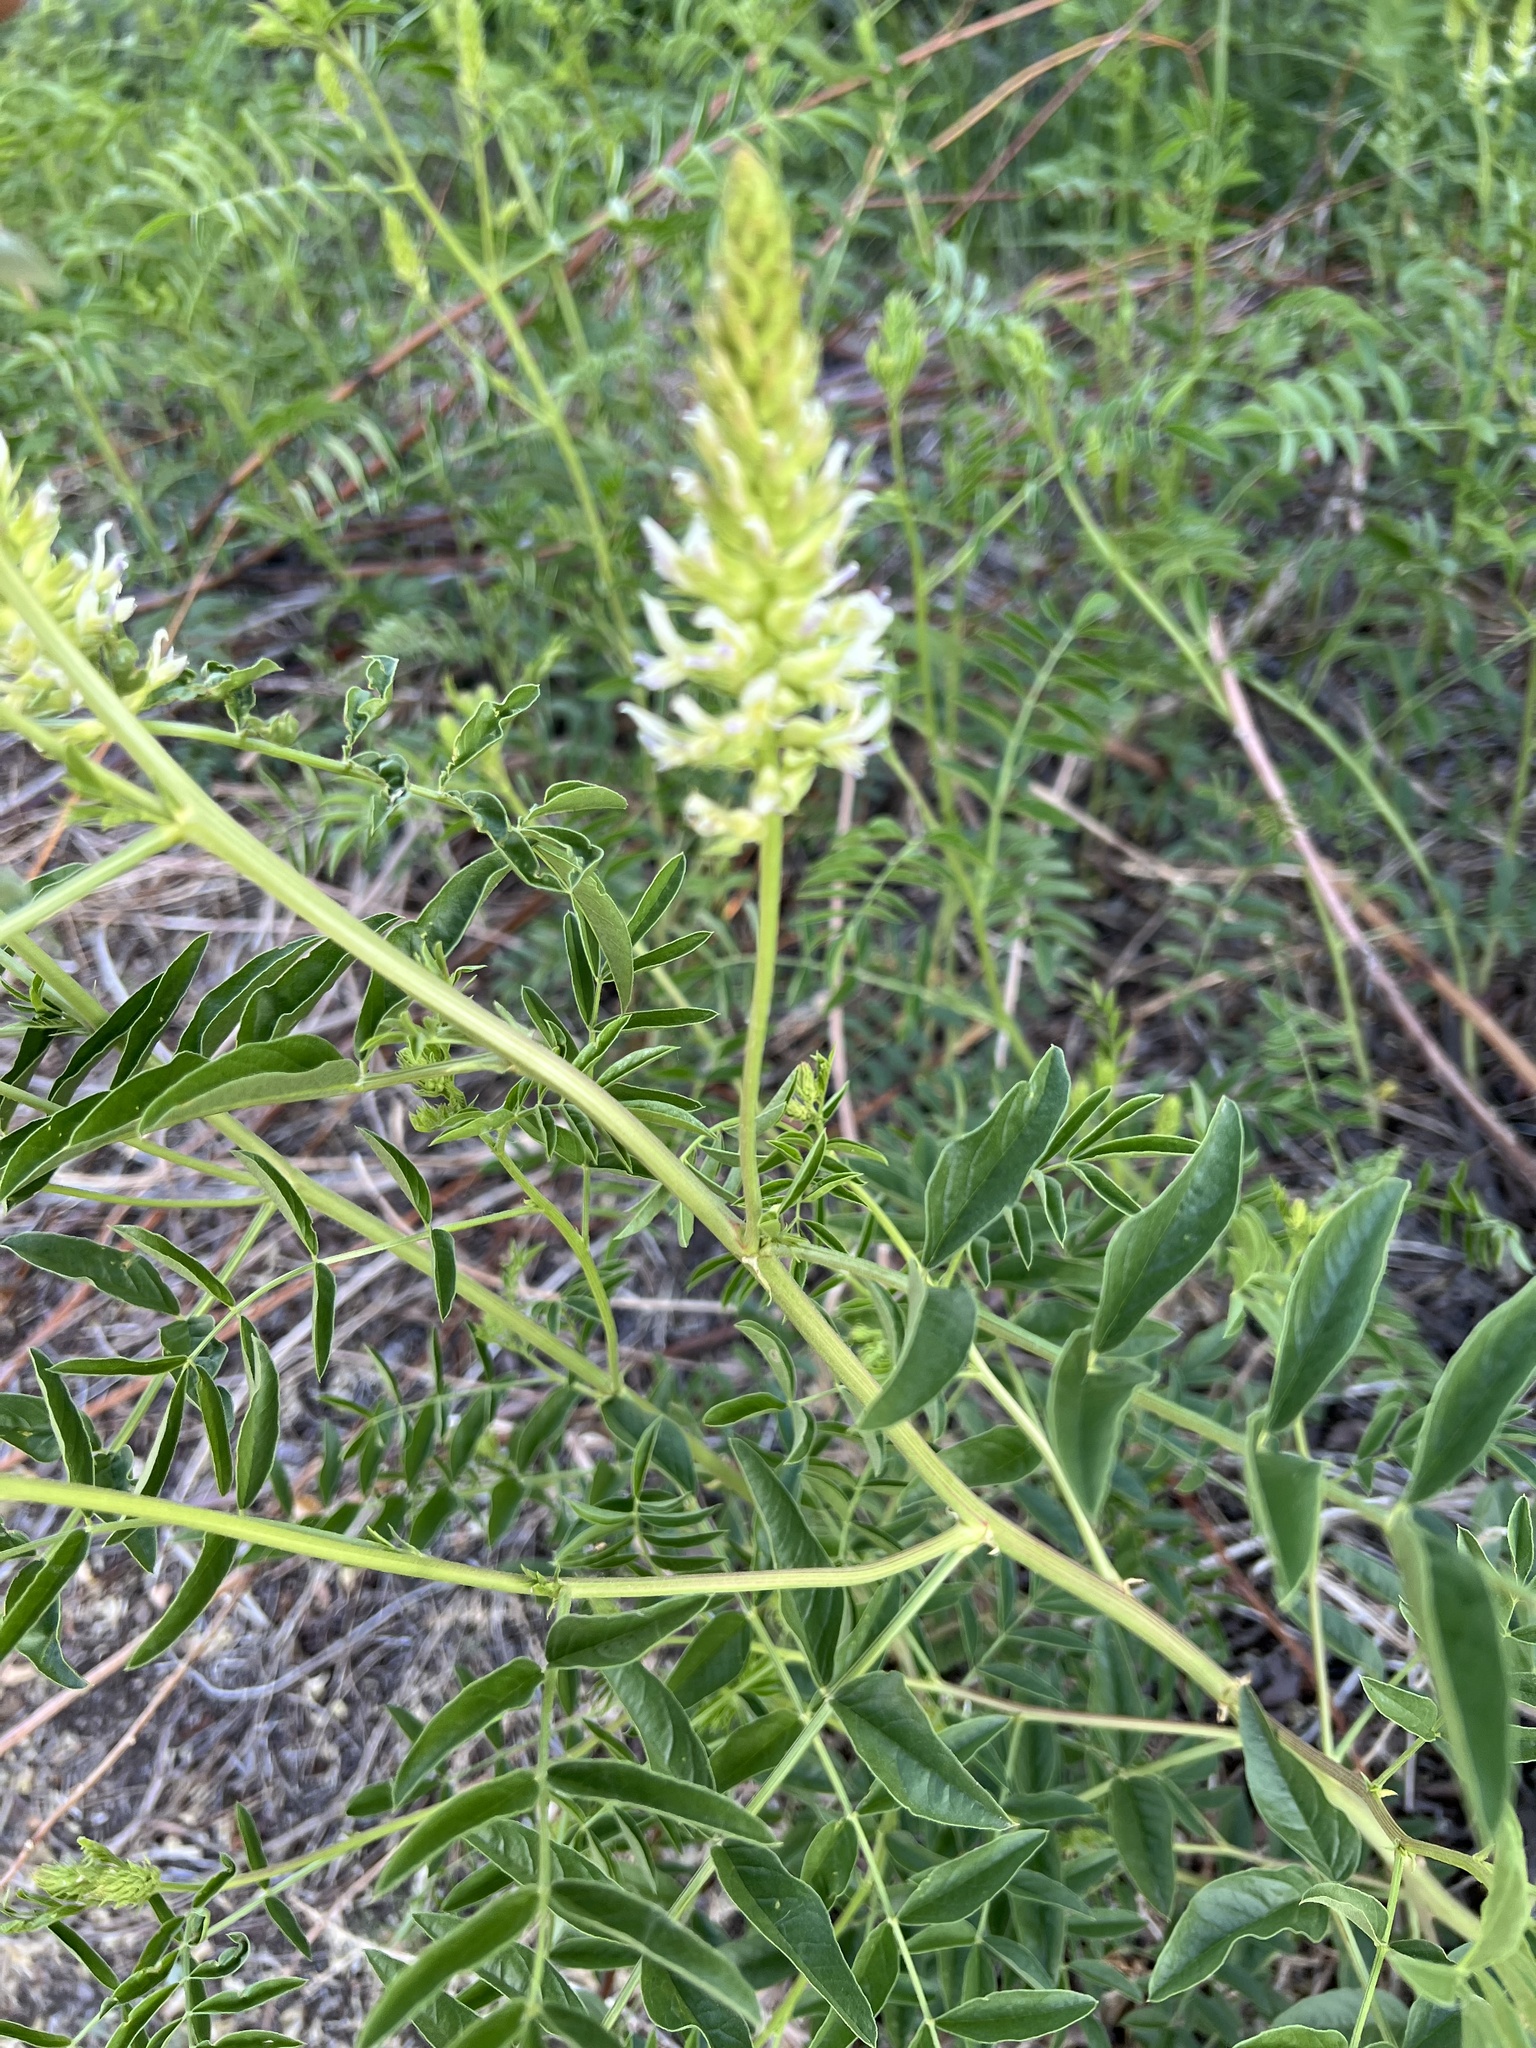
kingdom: Plantae
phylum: Tracheophyta
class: Magnoliopsida
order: Fabales
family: Fabaceae
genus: Glycyrrhiza
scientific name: Glycyrrhiza lepidota
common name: American liquorice
